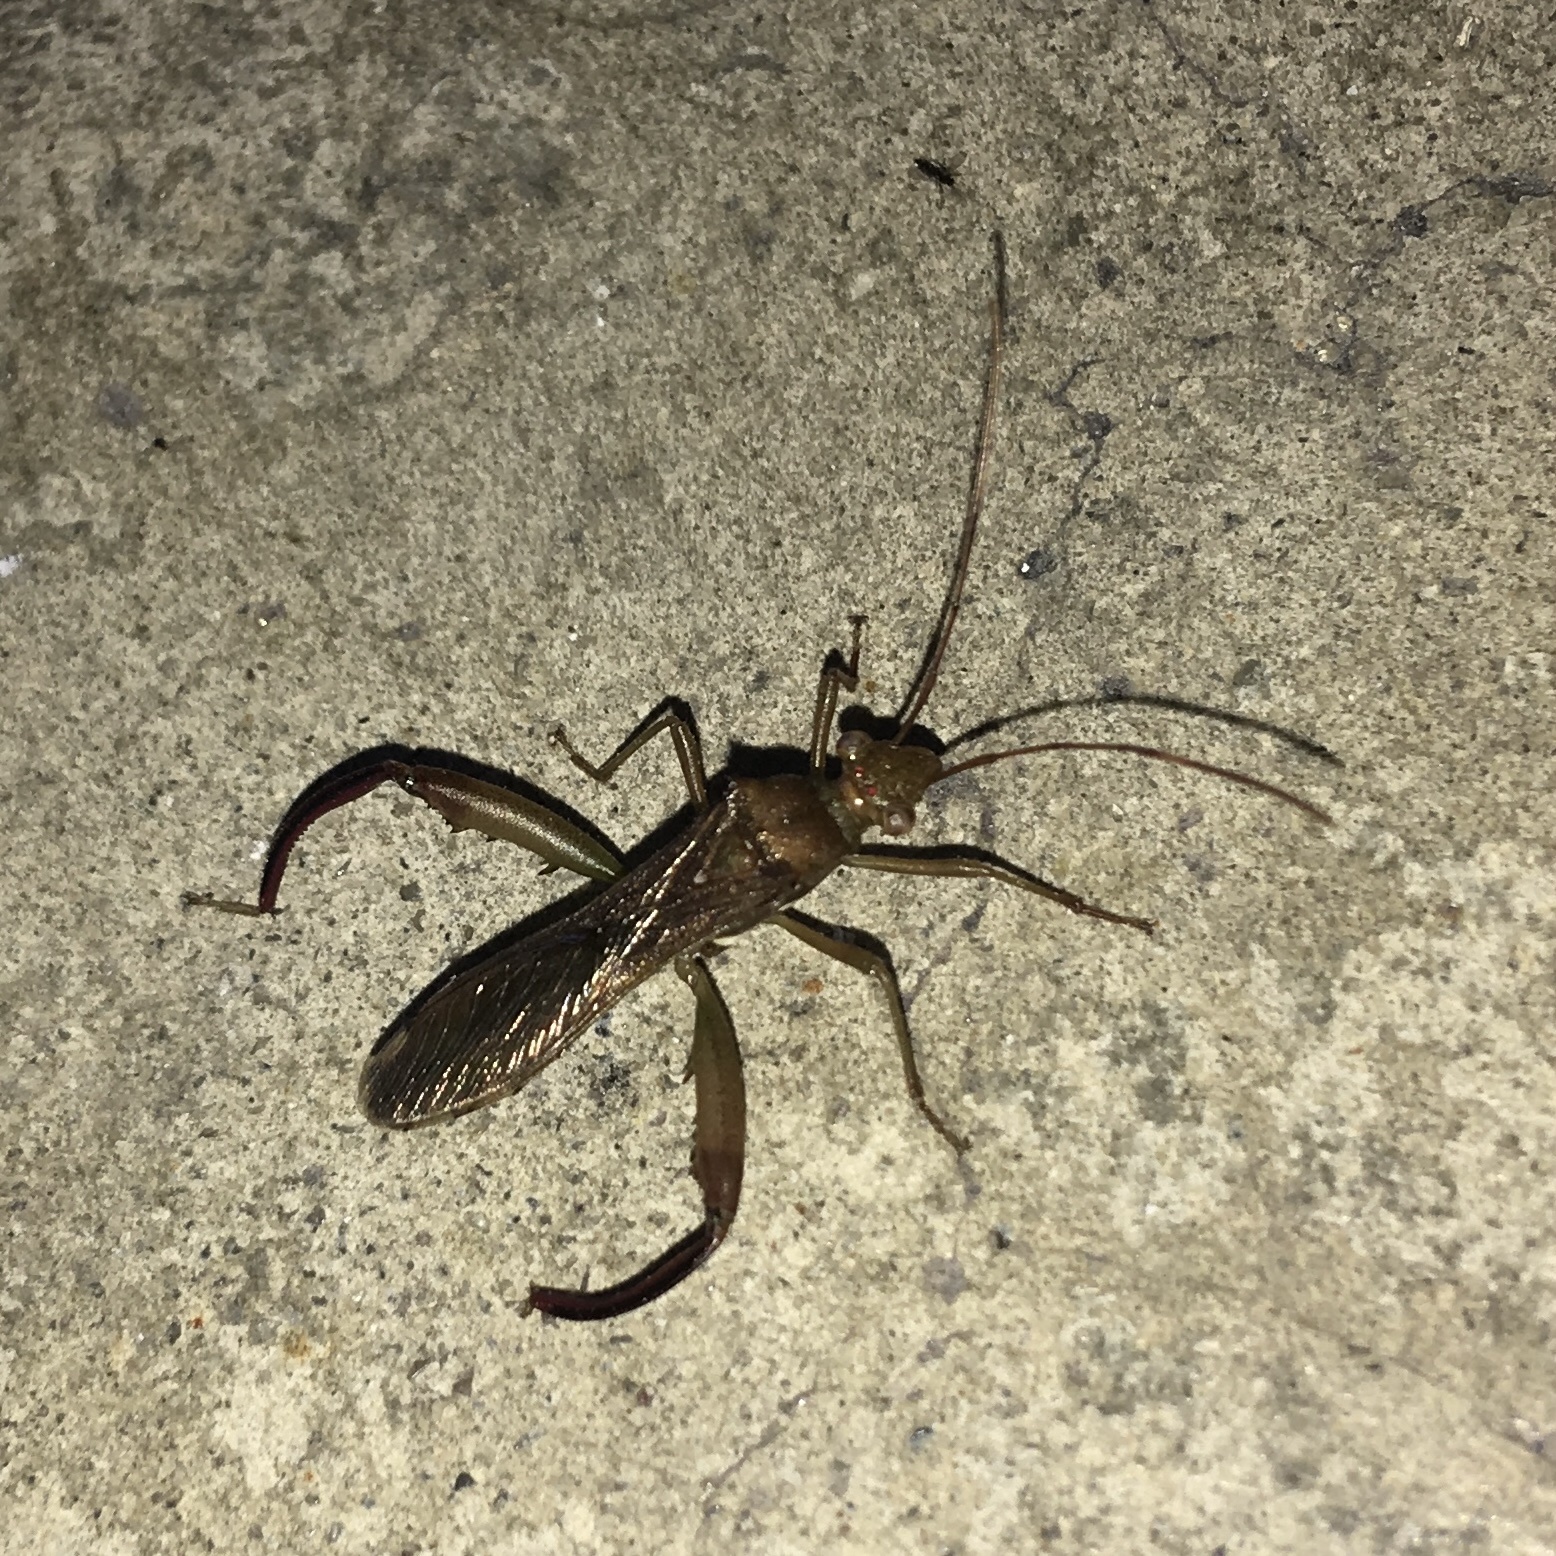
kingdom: Animalia
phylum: Arthropoda
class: Insecta
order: Hemiptera
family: Alydidae
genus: Hyalymenus
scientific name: Hyalymenus tarsatus
